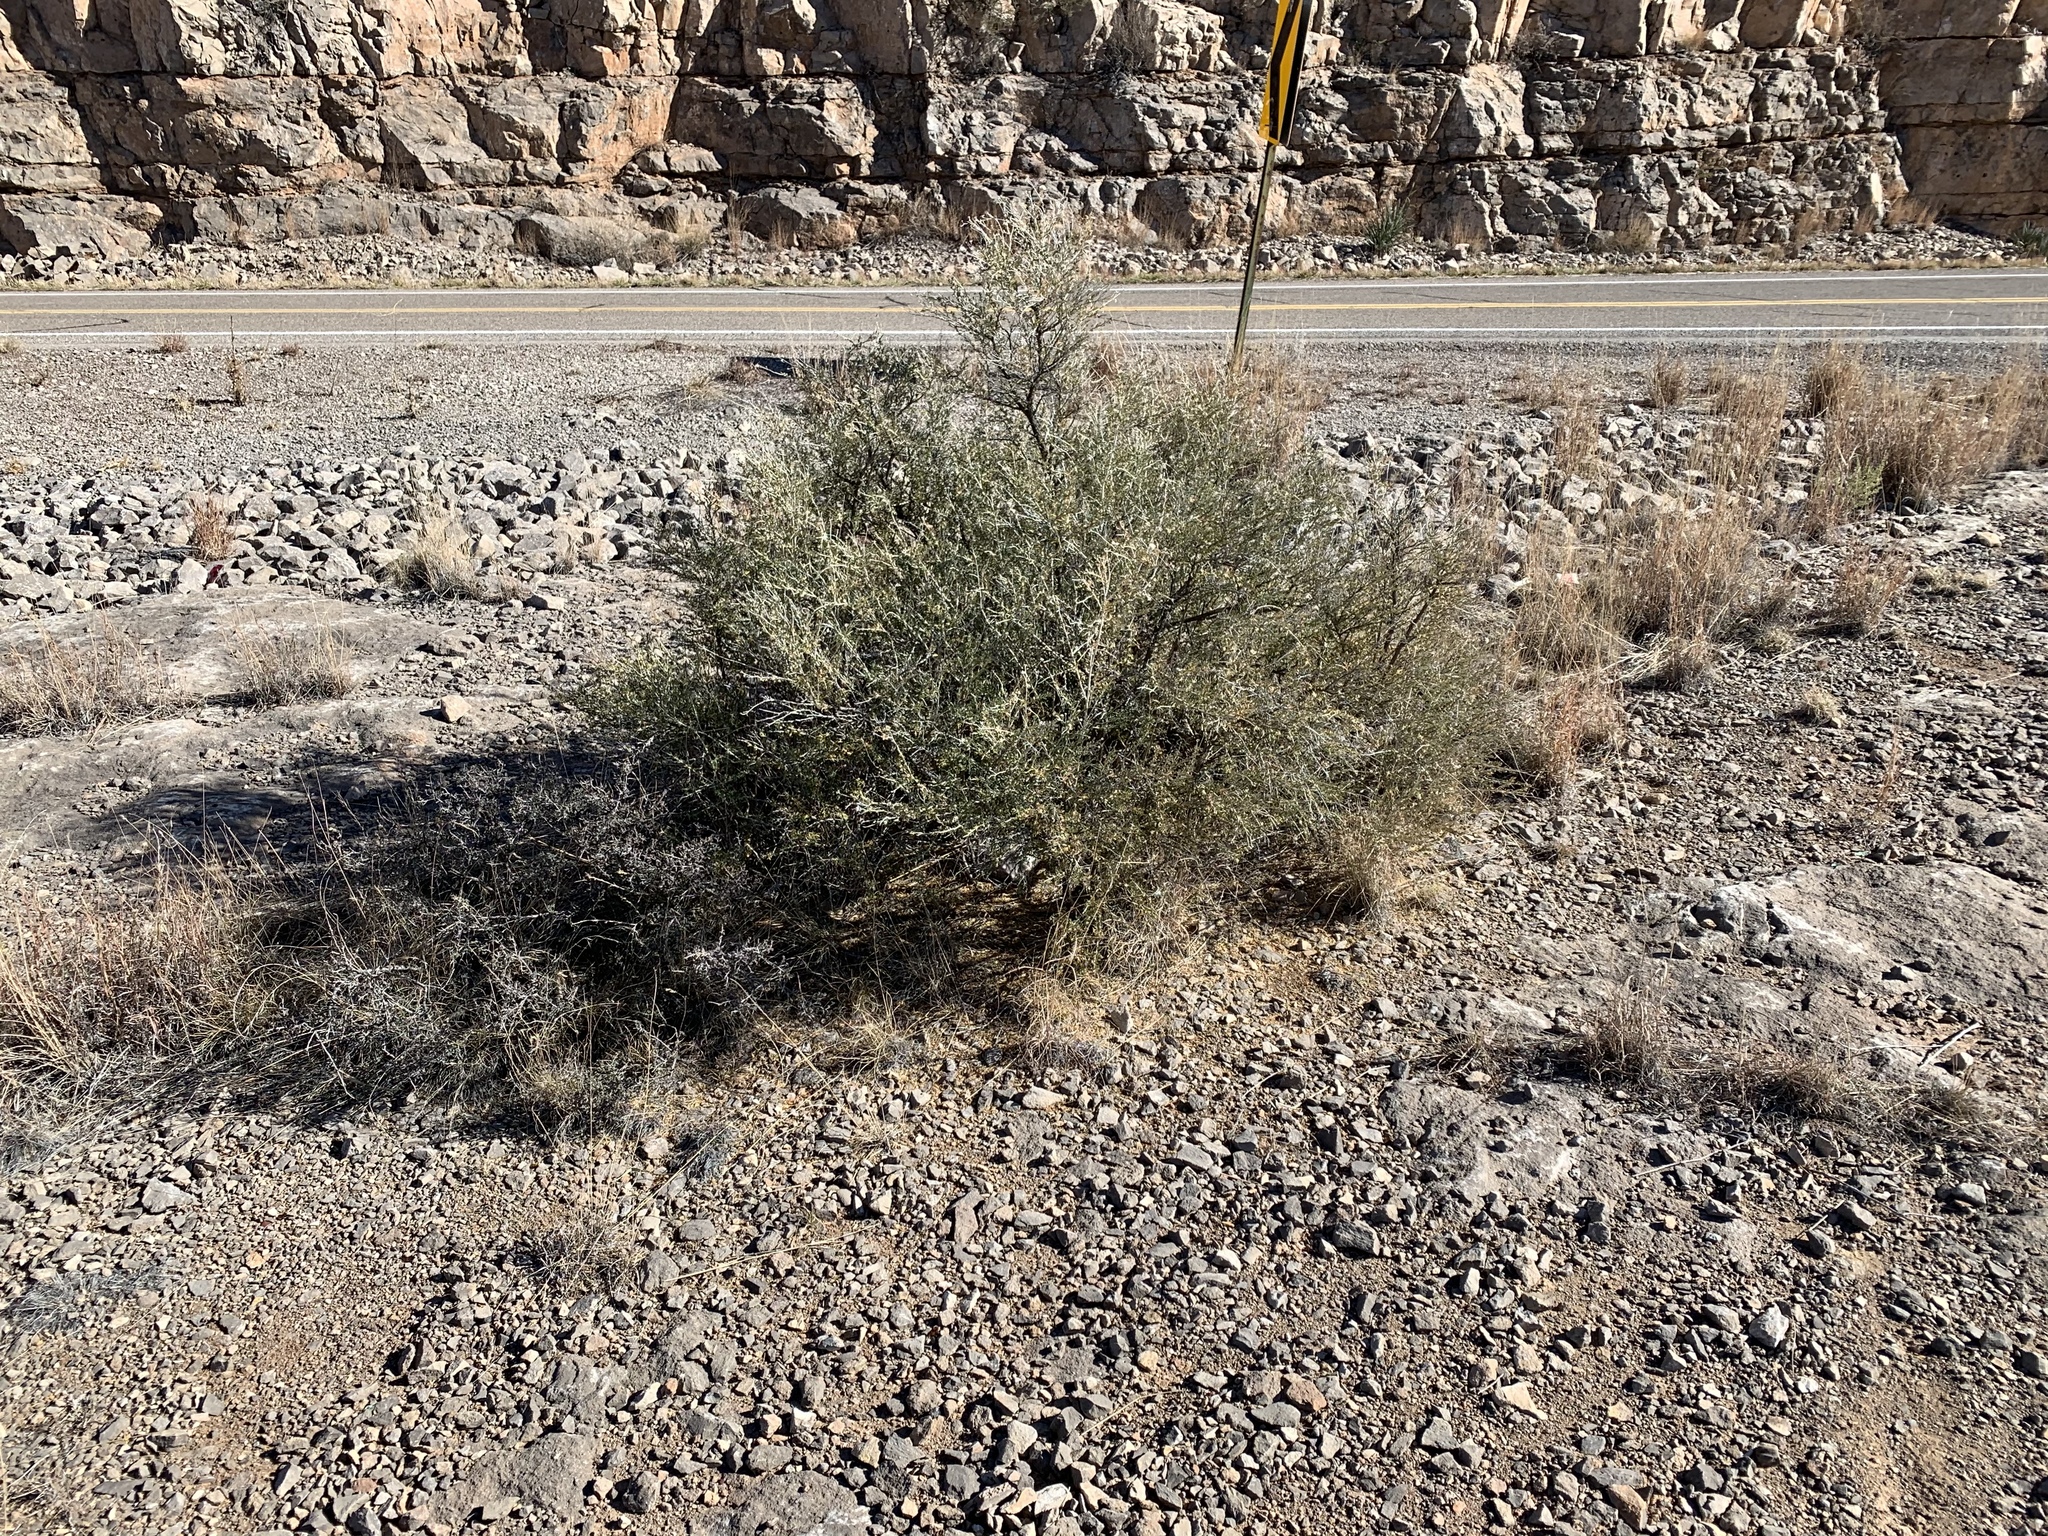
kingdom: Plantae
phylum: Tracheophyta
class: Magnoliopsida
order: Rosales
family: Rosaceae
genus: Fallugia
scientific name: Fallugia paradoxa
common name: Apache-plume
